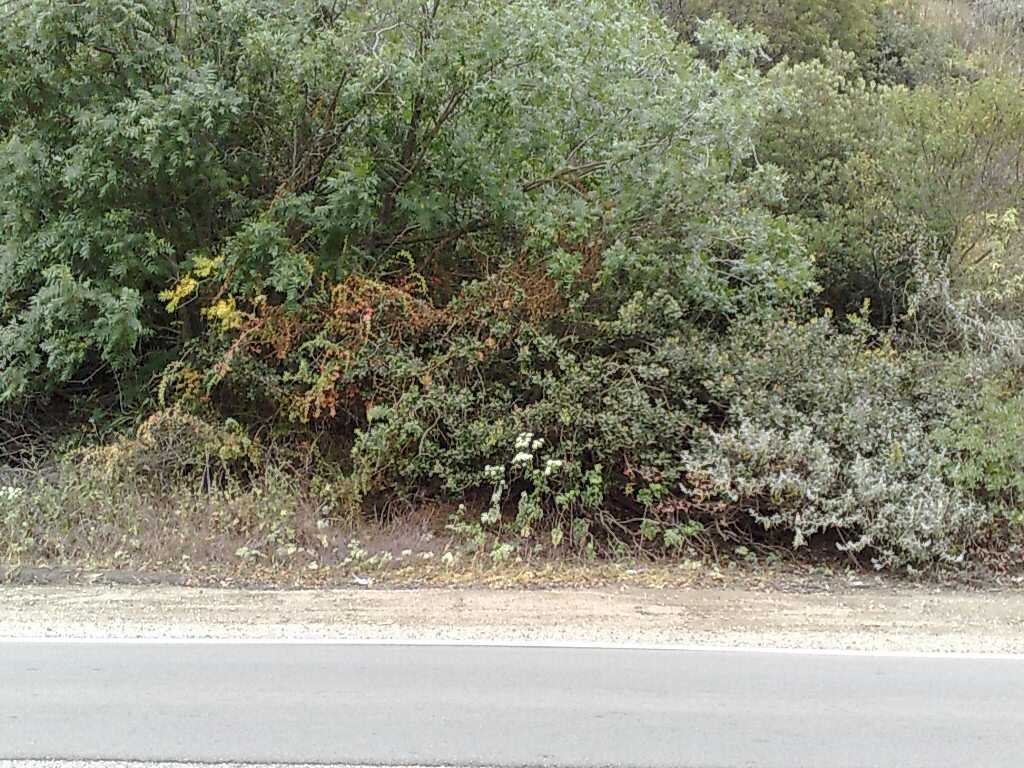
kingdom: Plantae
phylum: Tracheophyta
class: Magnoliopsida
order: Fagales
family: Juglandaceae
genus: Juglans
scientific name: Juglans californica
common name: Southern california black walnut
